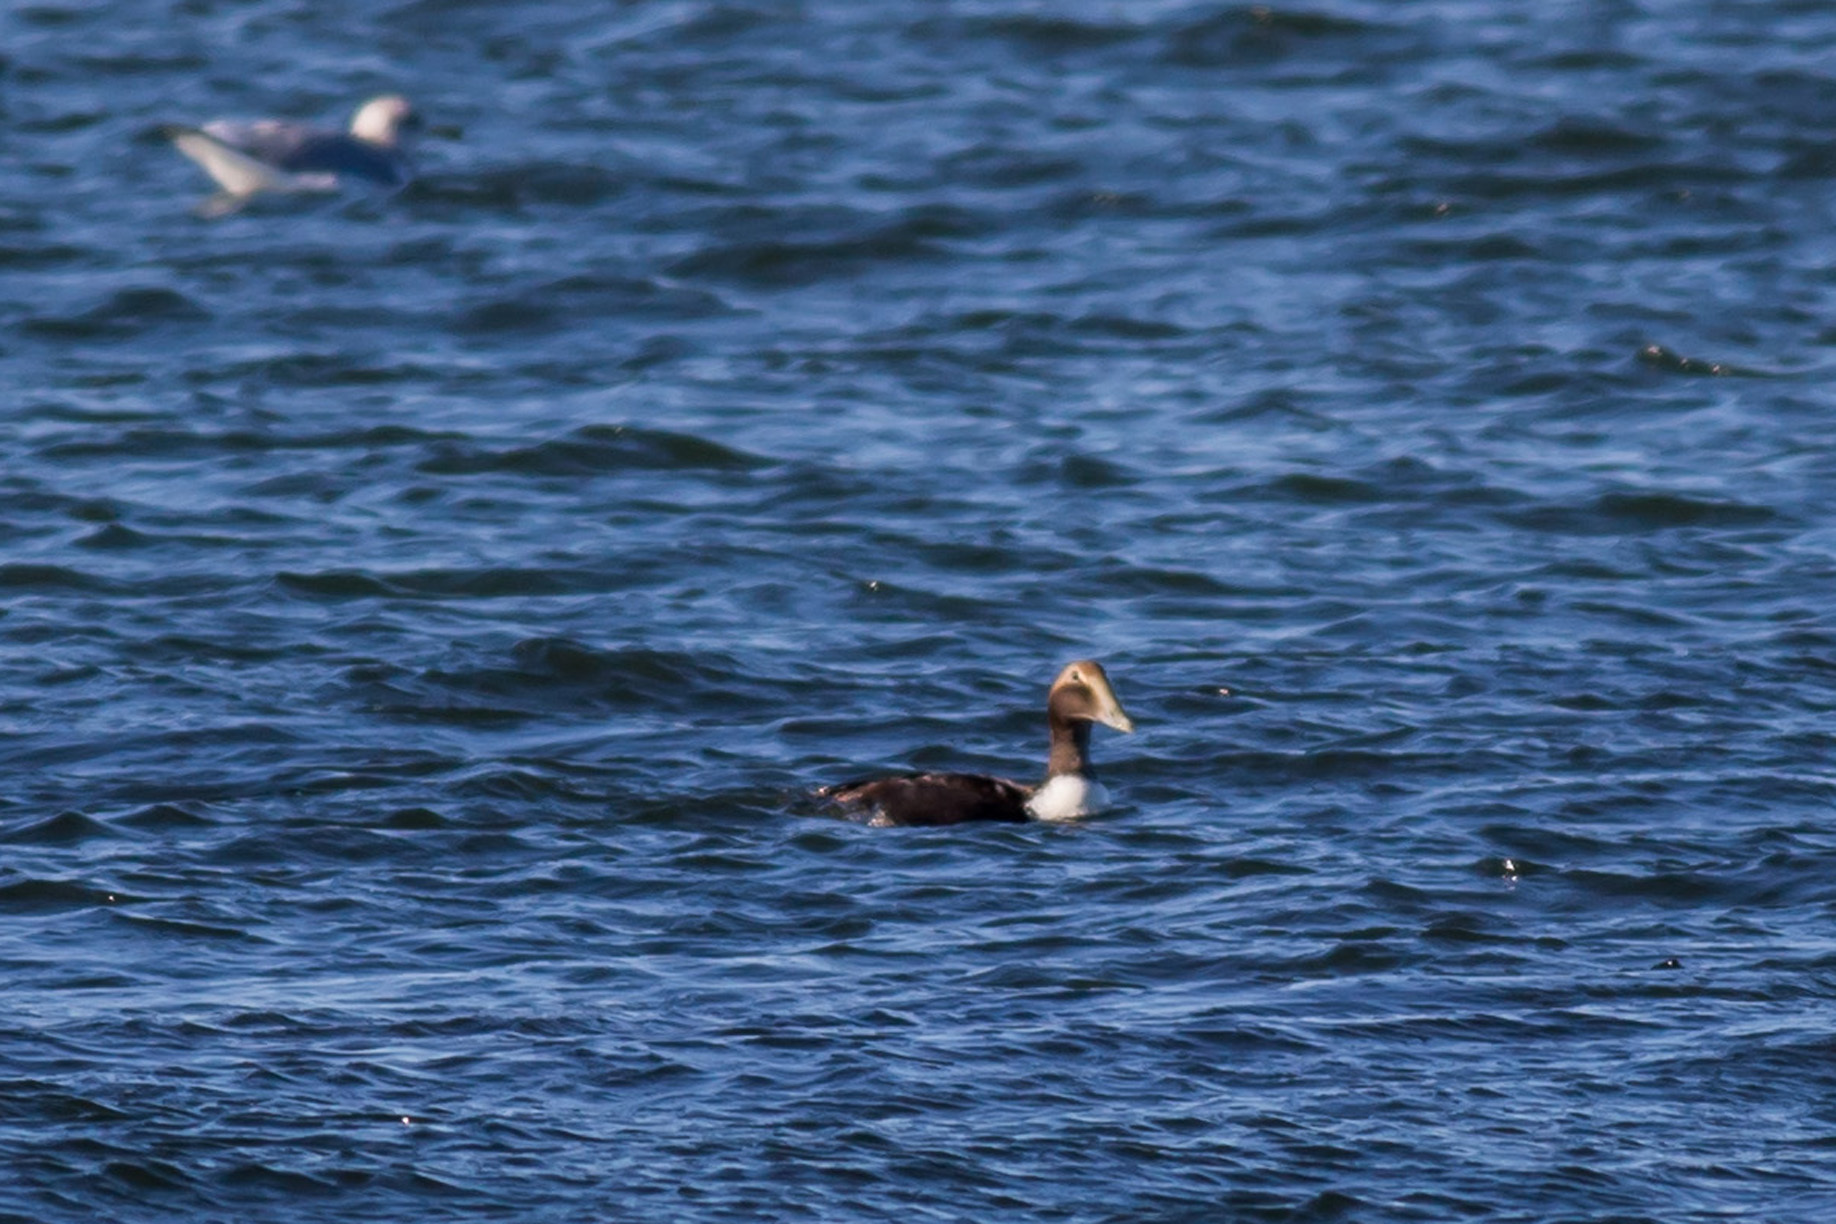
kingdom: Animalia
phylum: Chordata
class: Aves
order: Anseriformes
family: Anatidae
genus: Somateria
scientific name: Somateria mollissima
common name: Common eider
